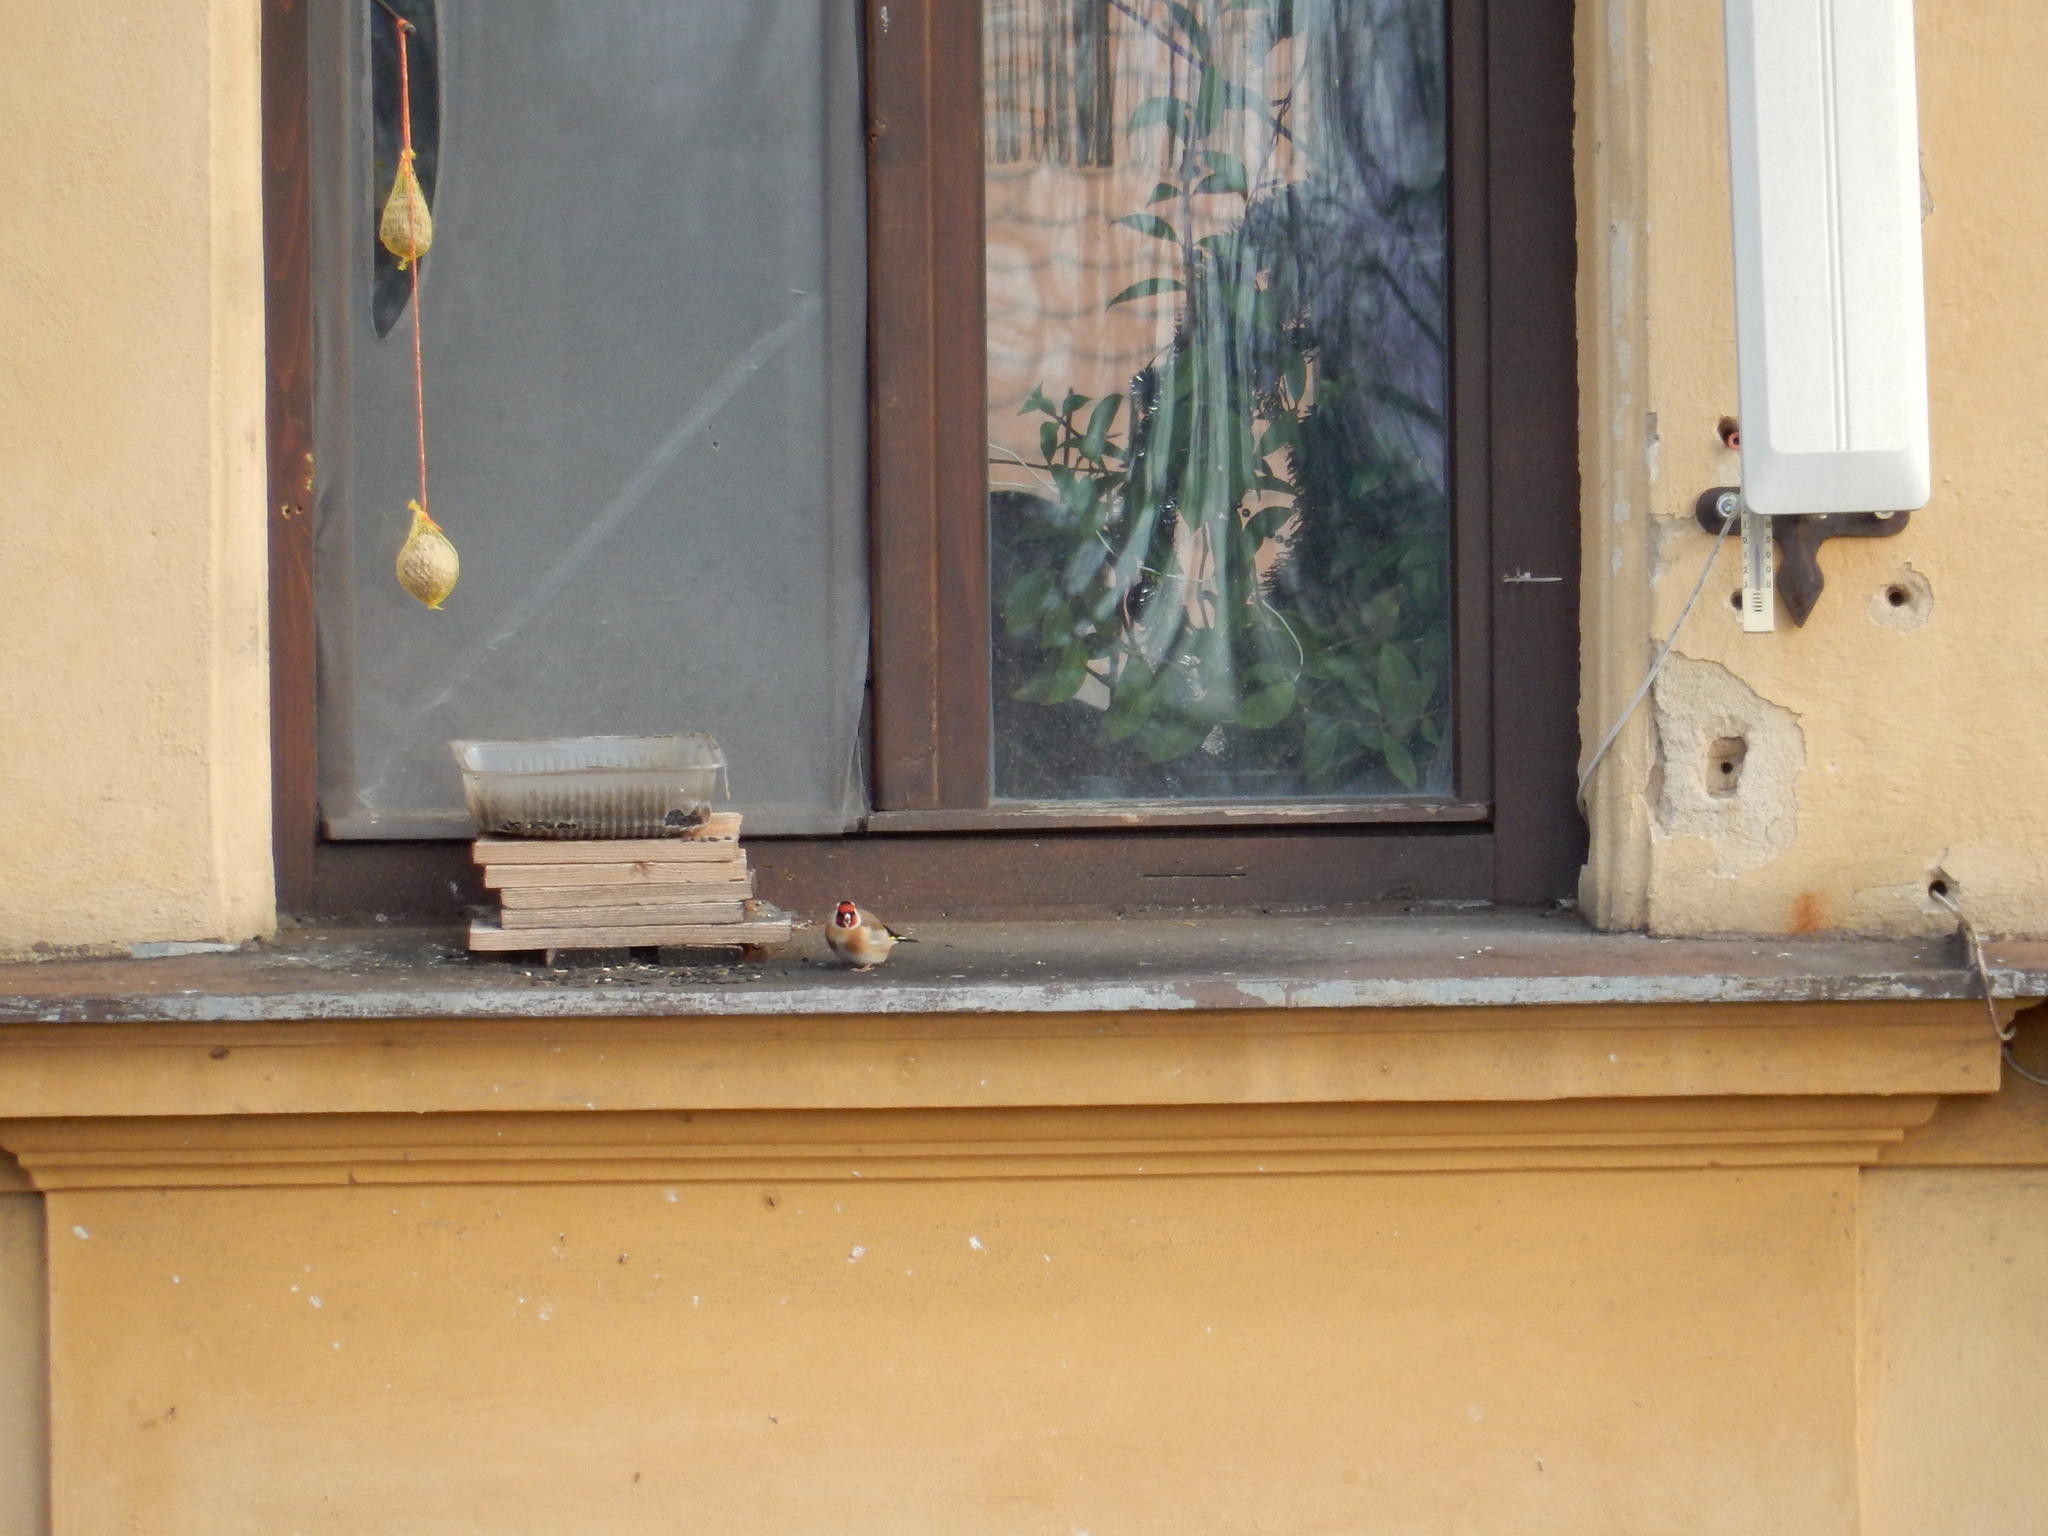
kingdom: Animalia
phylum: Chordata
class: Aves
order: Passeriformes
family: Fringillidae
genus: Carduelis
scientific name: Carduelis carduelis
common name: European goldfinch
